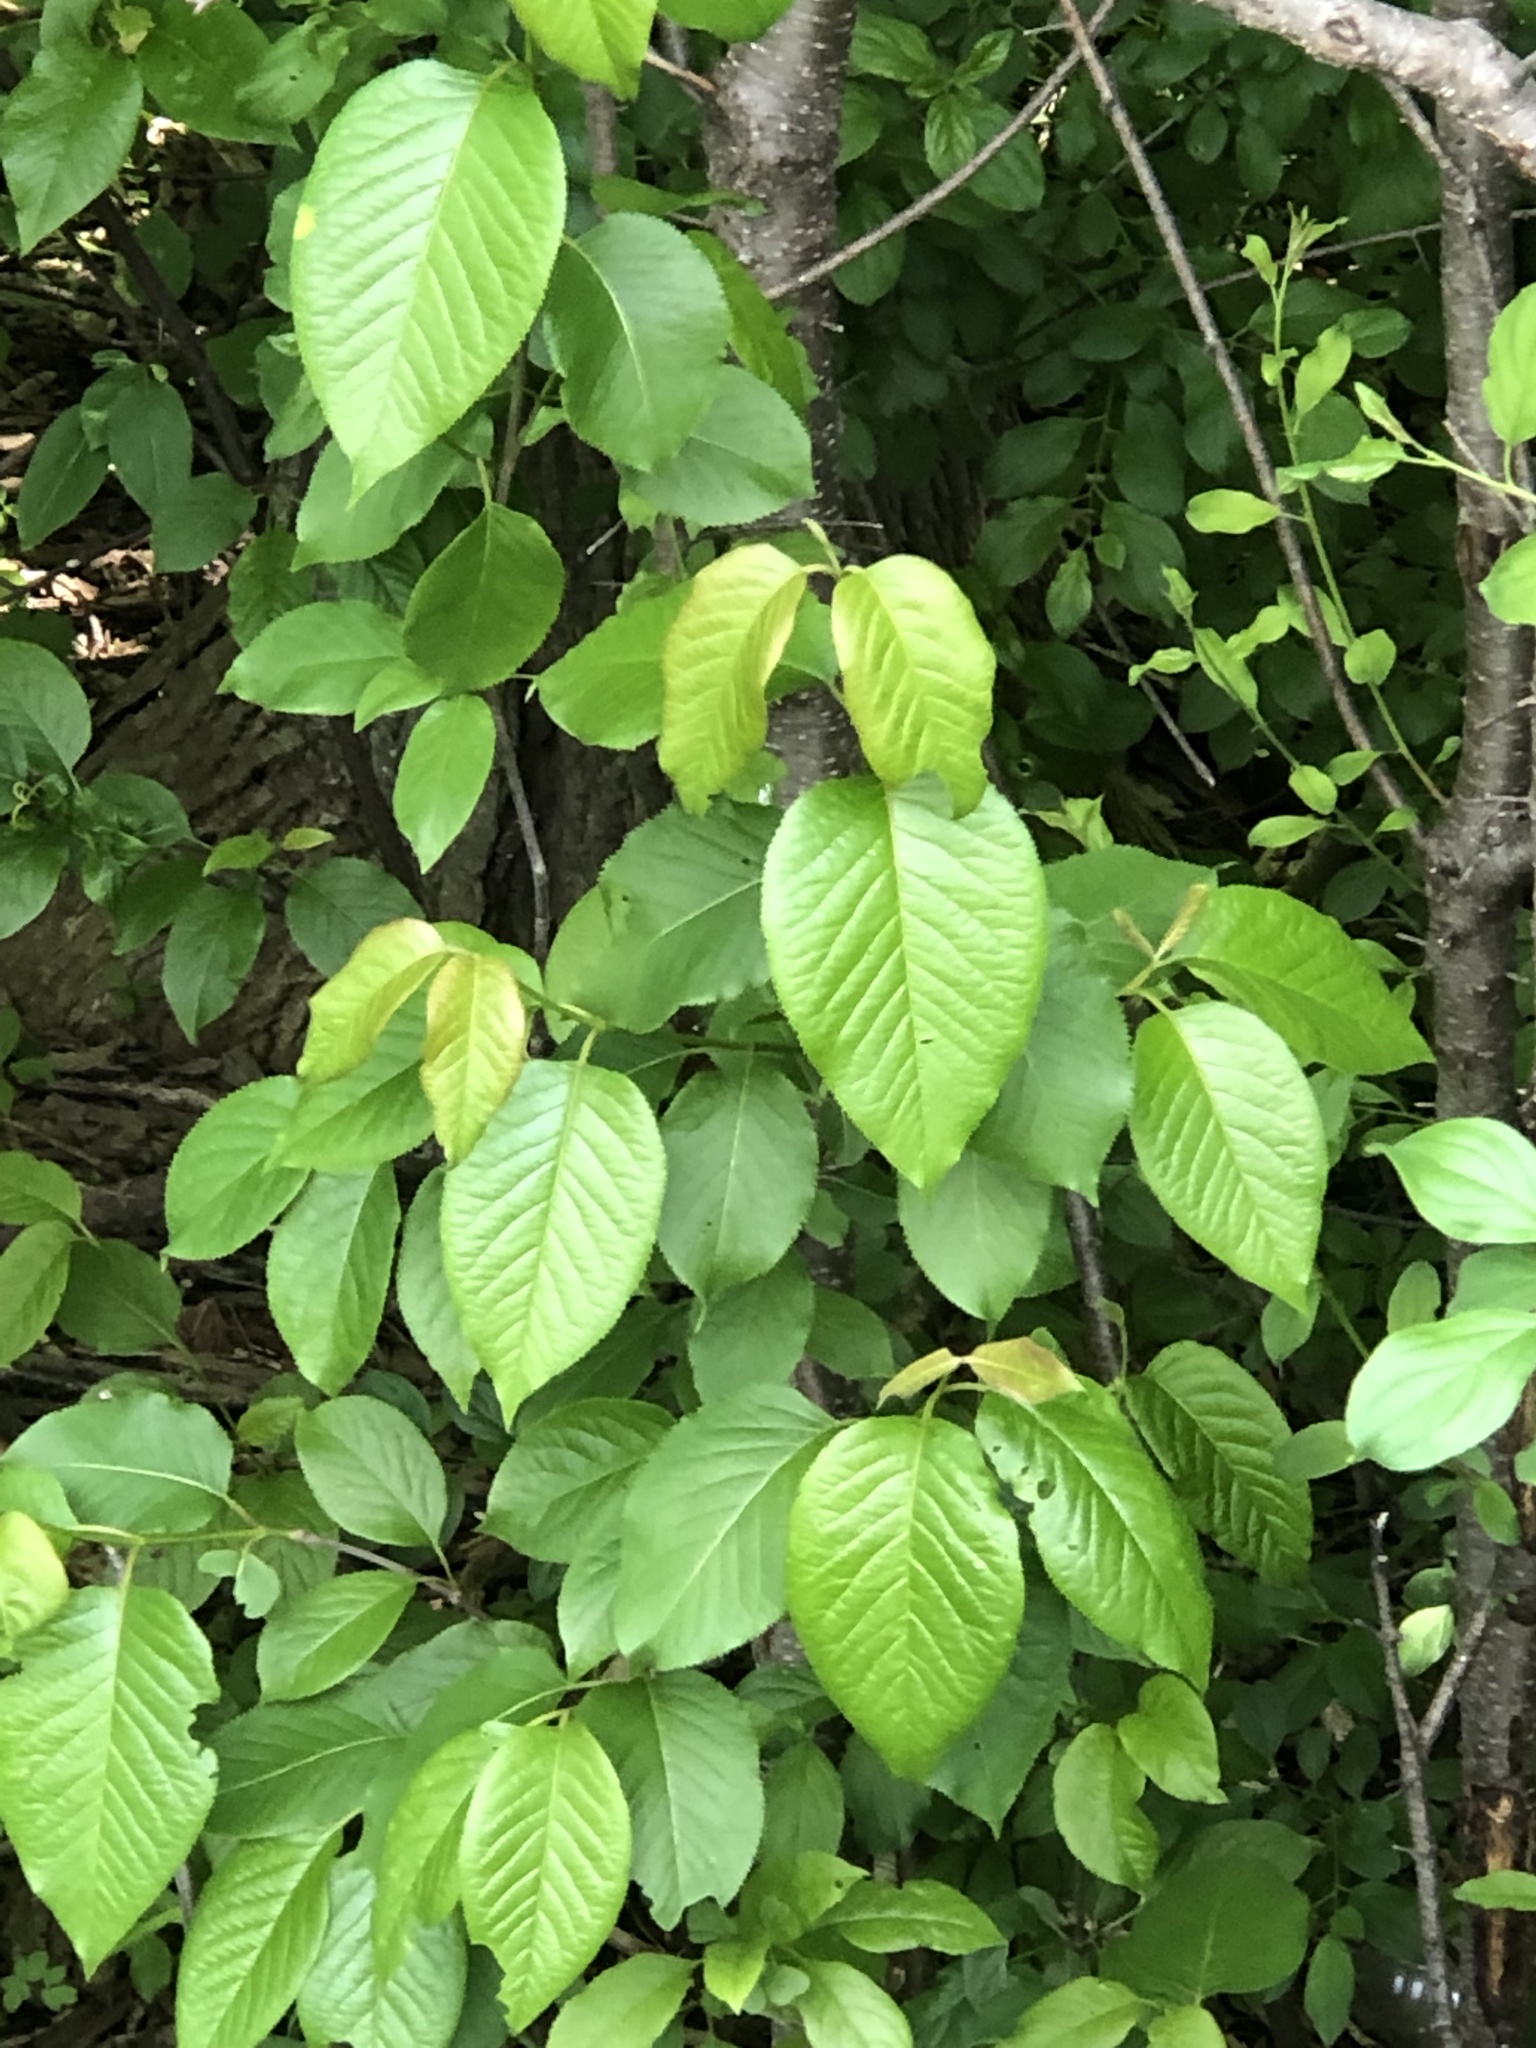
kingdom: Plantae
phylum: Tracheophyta
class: Magnoliopsida
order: Dipsacales
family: Viburnaceae
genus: Viburnum
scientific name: Viburnum lentago
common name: Black haw
